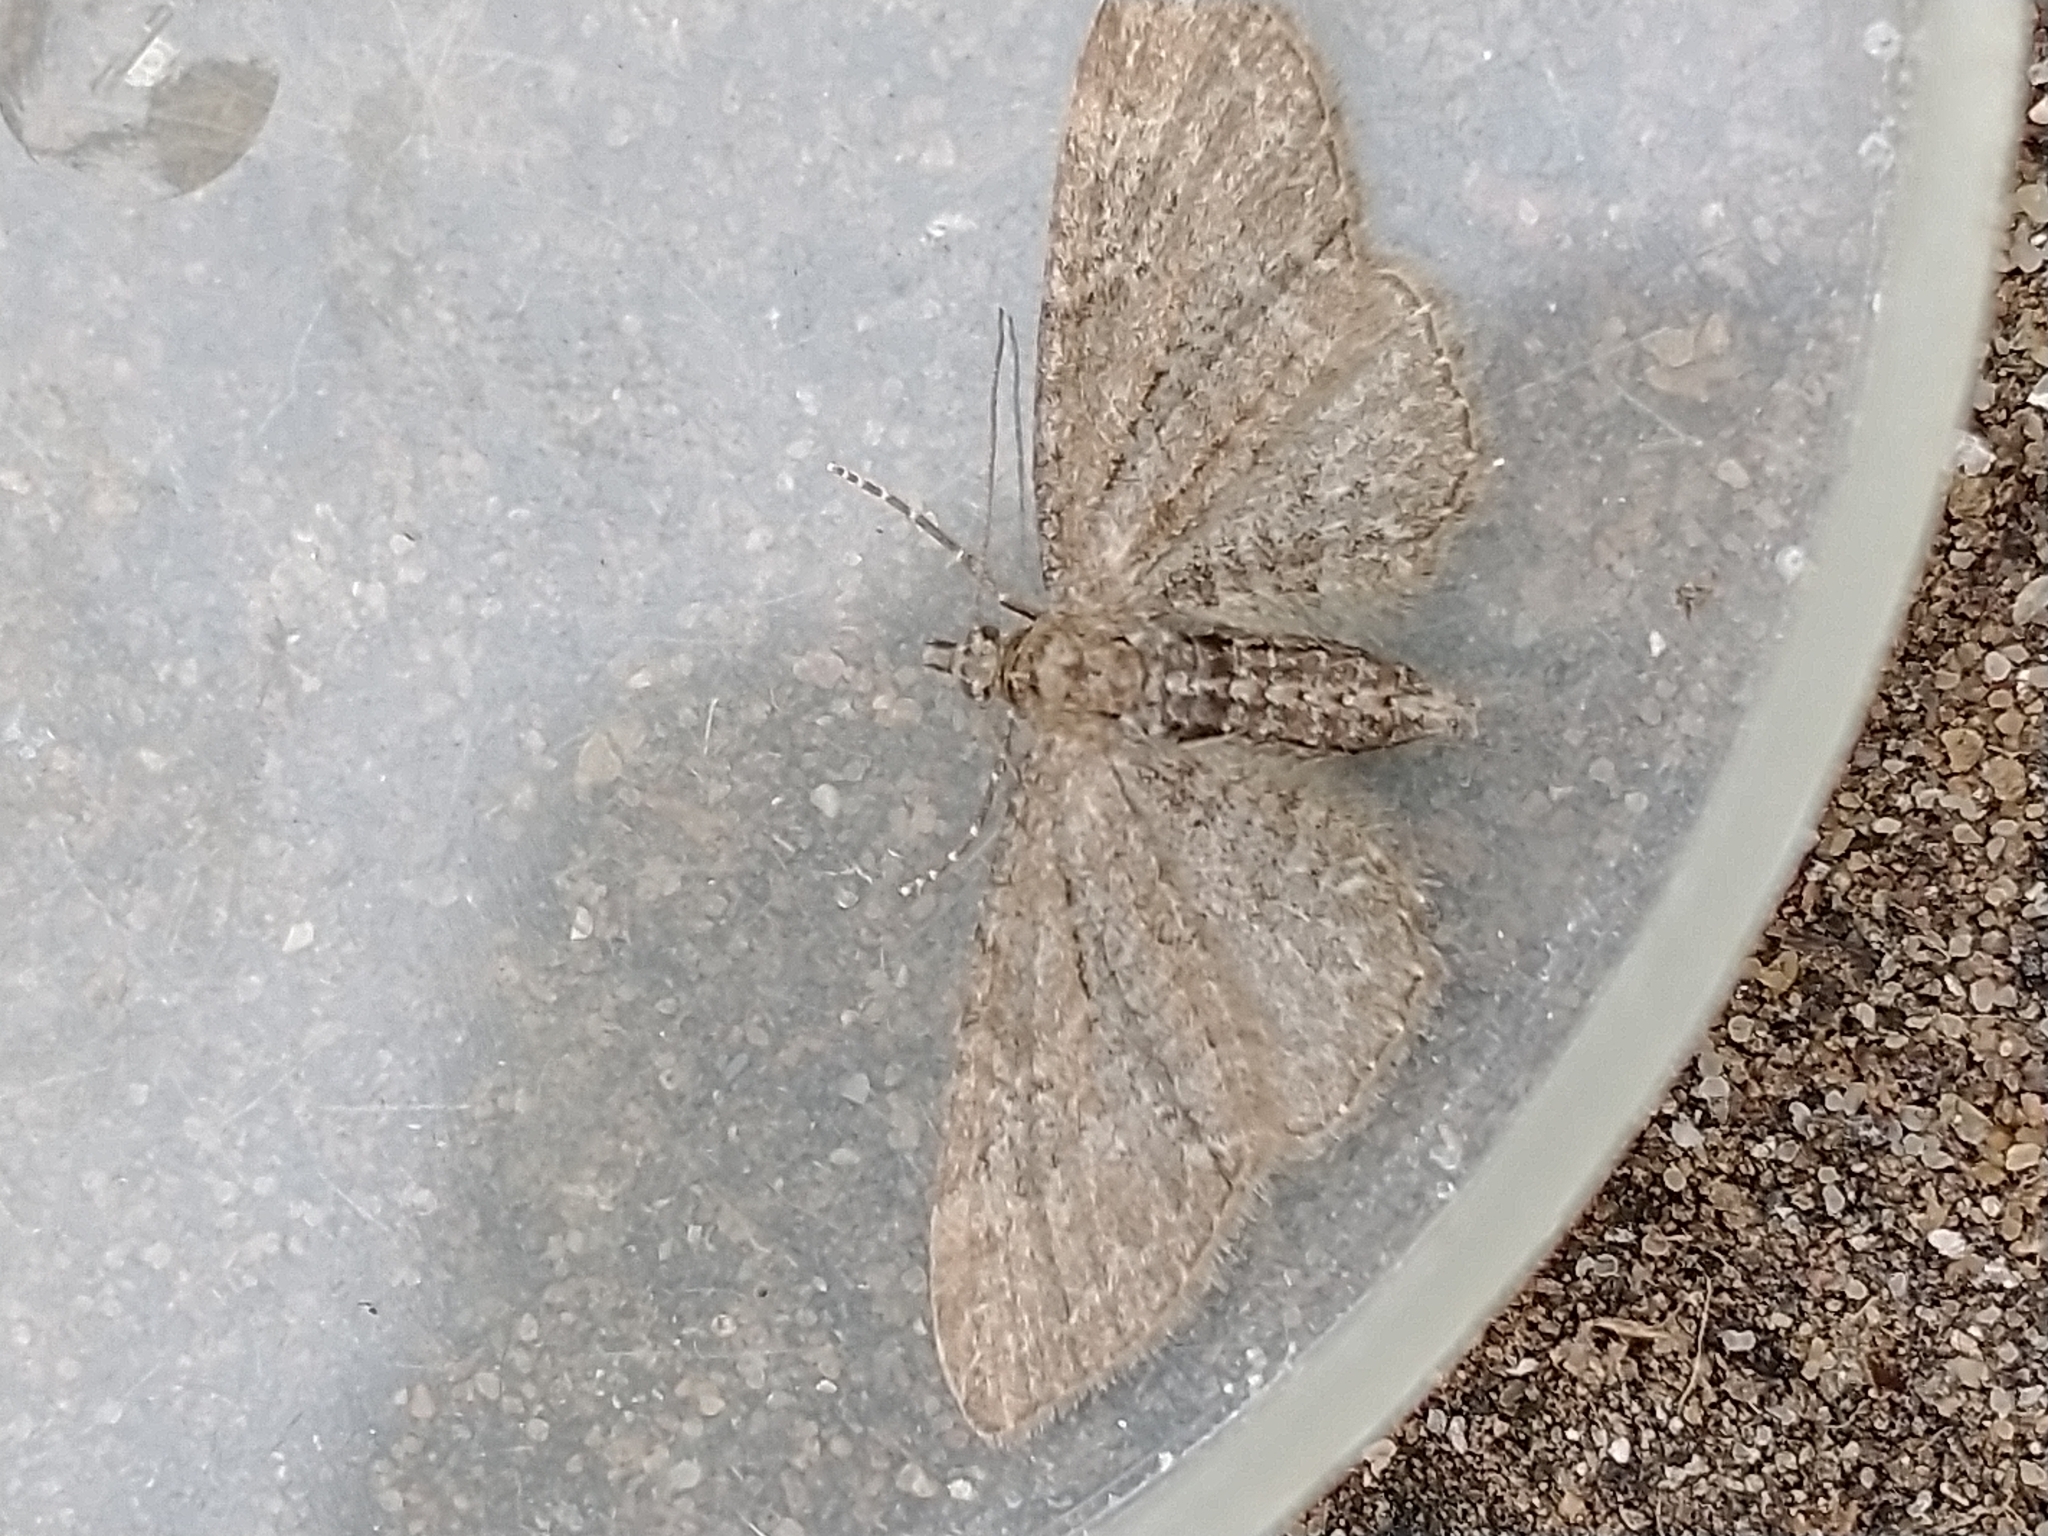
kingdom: Animalia
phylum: Arthropoda
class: Insecta
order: Lepidoptera
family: Geometridae
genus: Eupithecia
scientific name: Eupithecia vulgata
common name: Common pug
